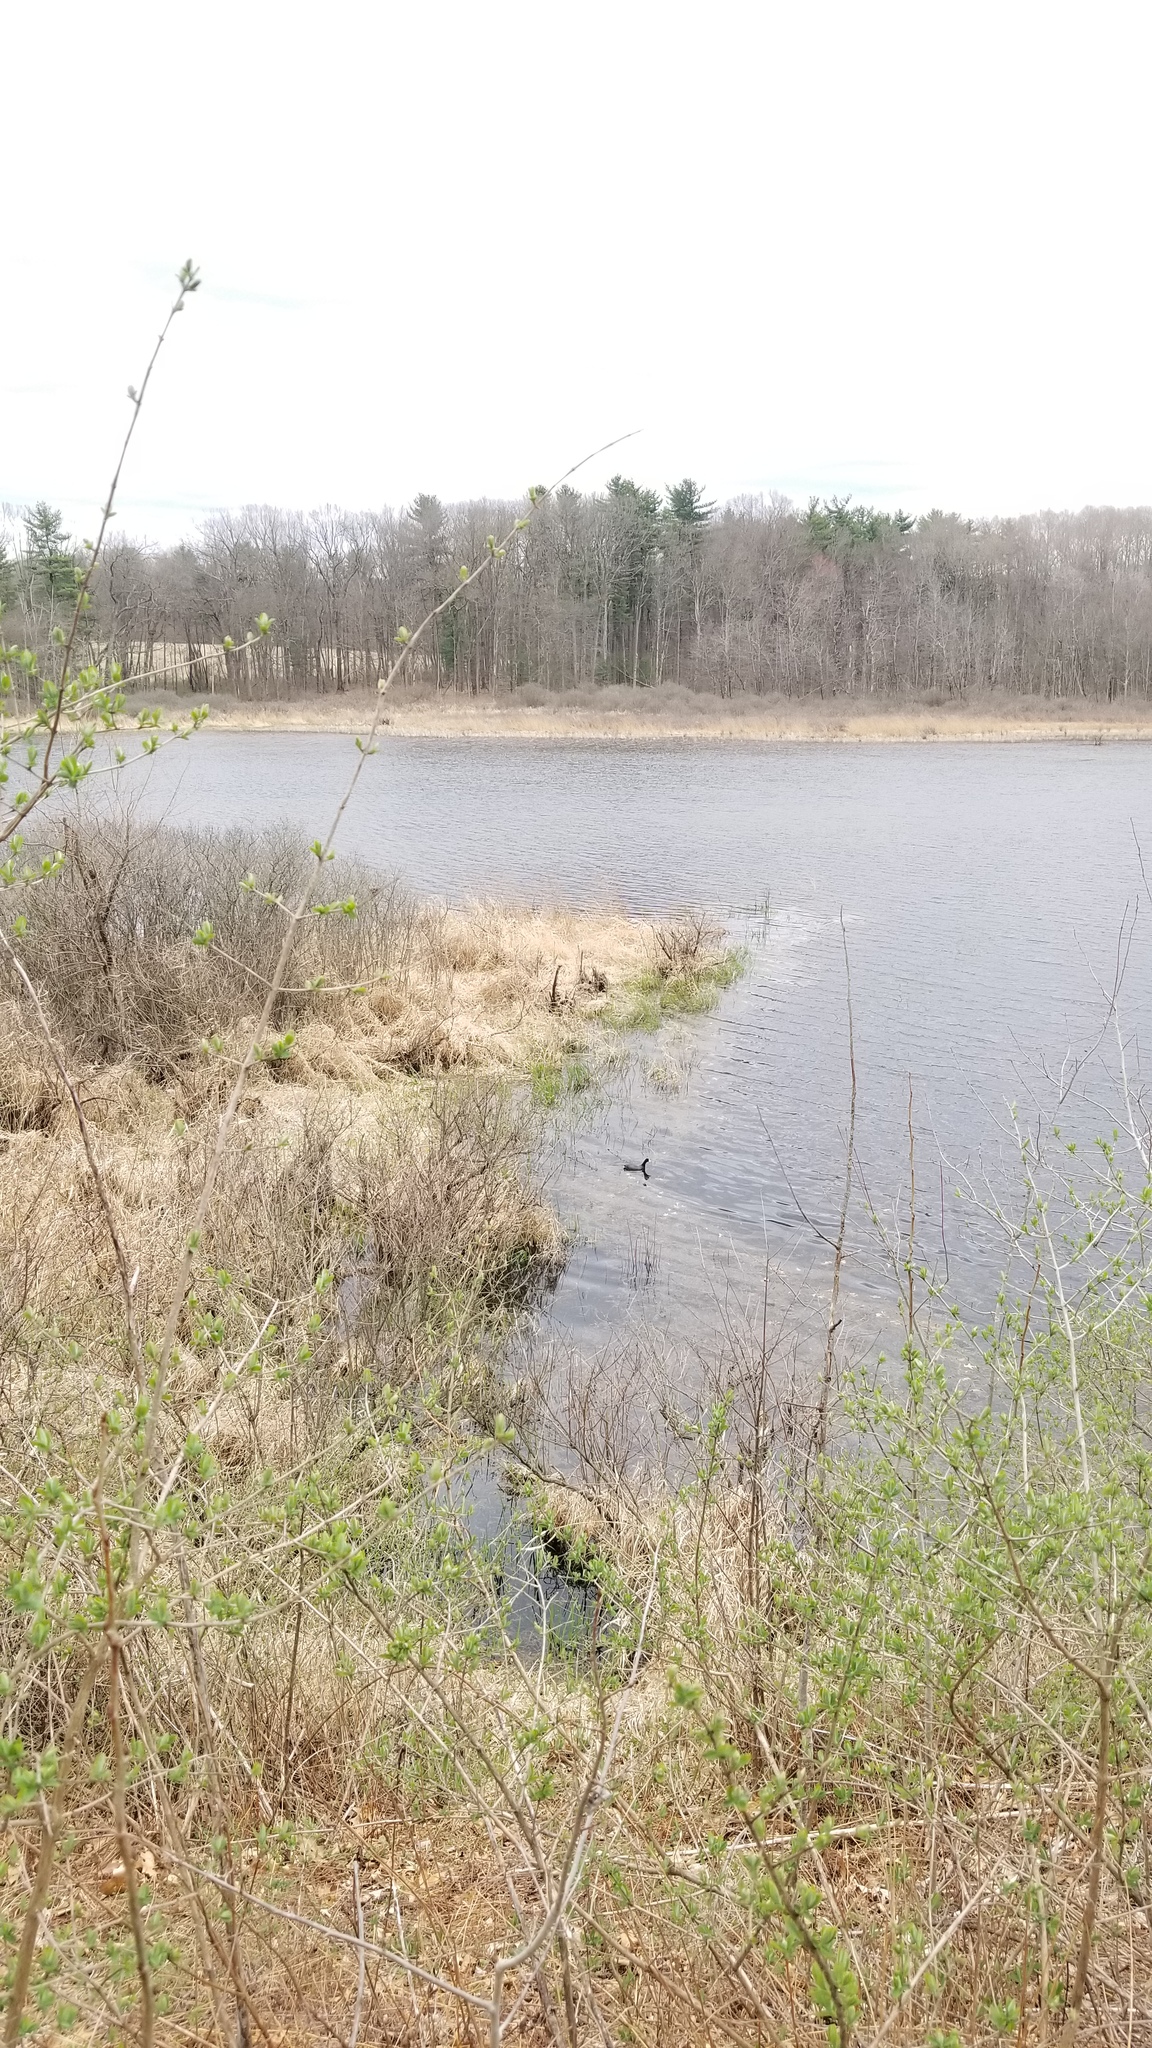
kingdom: Animalia
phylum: Chordata
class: Aves
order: Gruiformes
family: Rallidae
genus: Fulica
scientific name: Fulica americana
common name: American coot
